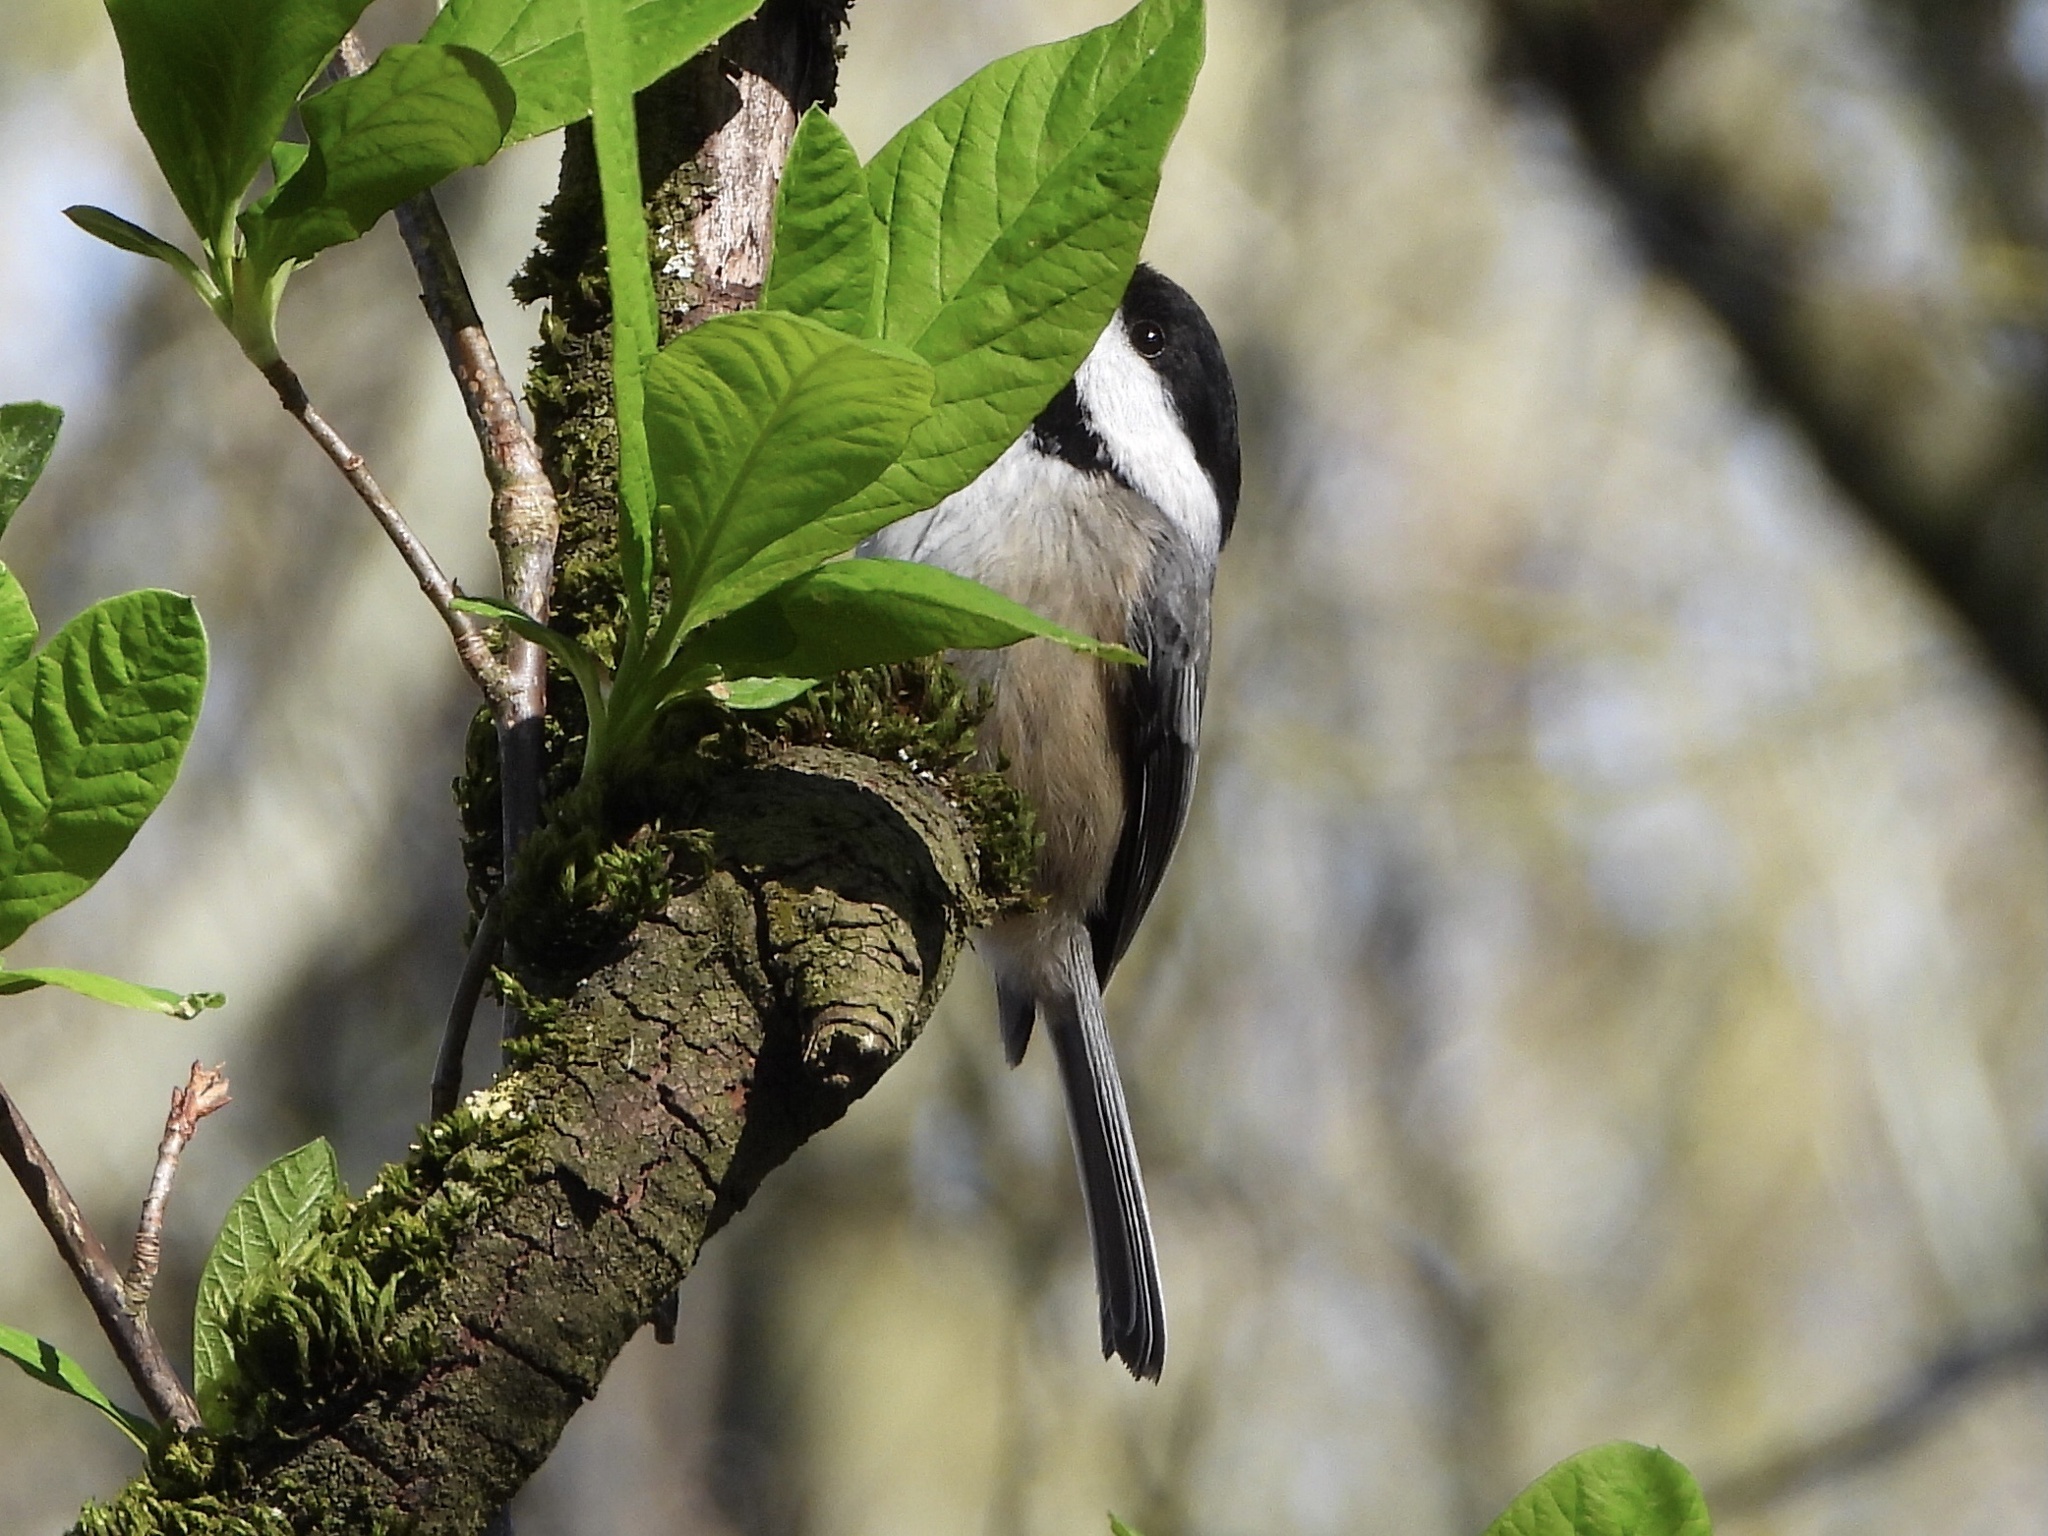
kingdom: Animalia
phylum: Chordata
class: Aves
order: Passeriformes
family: Paridae
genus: Poecile
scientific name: Poecile atricapillus
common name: Black-capped chickadee
